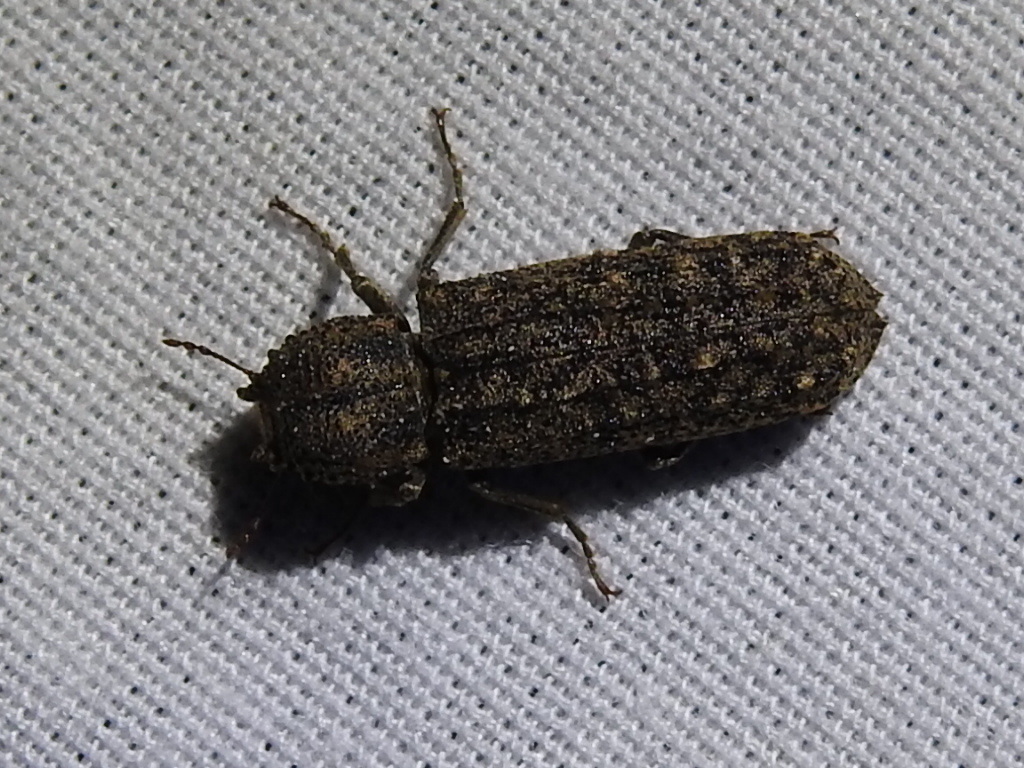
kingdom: Animalia
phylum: Arthropoda
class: Insecta
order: Coleoptera
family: Bostrichidae
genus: Lichenophanes
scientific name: Lichenophanes bicornis
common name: Two-horned powder-post beetle
